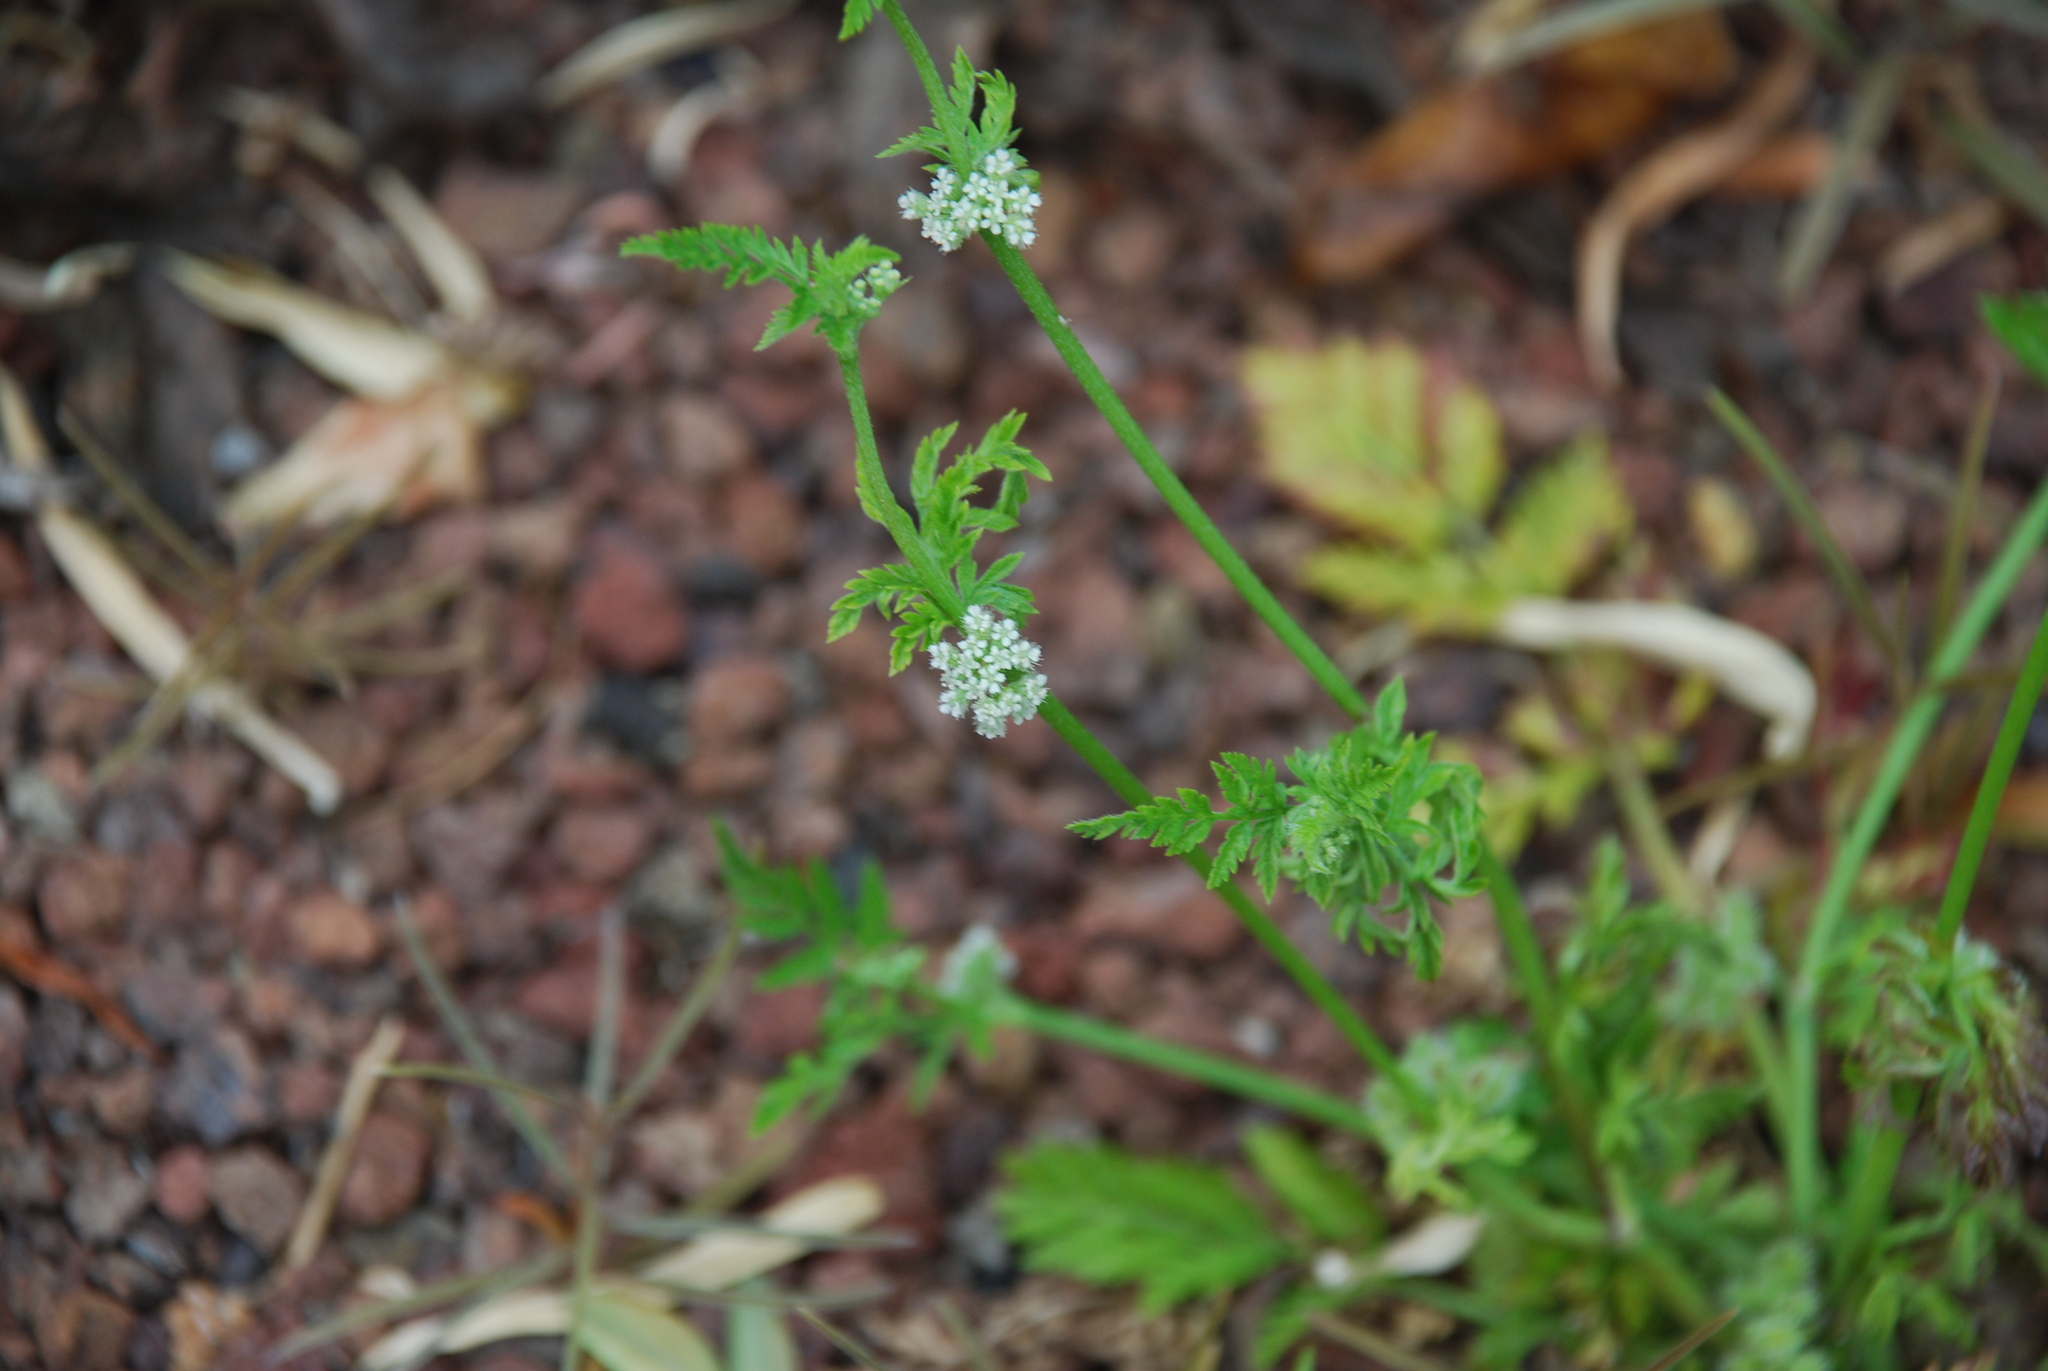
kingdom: Plantae
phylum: Tracheophyta
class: Magnoliopsida
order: Apiales
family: Apiaceae
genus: Torilis
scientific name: Torilis nodosa
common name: Knotted hedge-parsley
